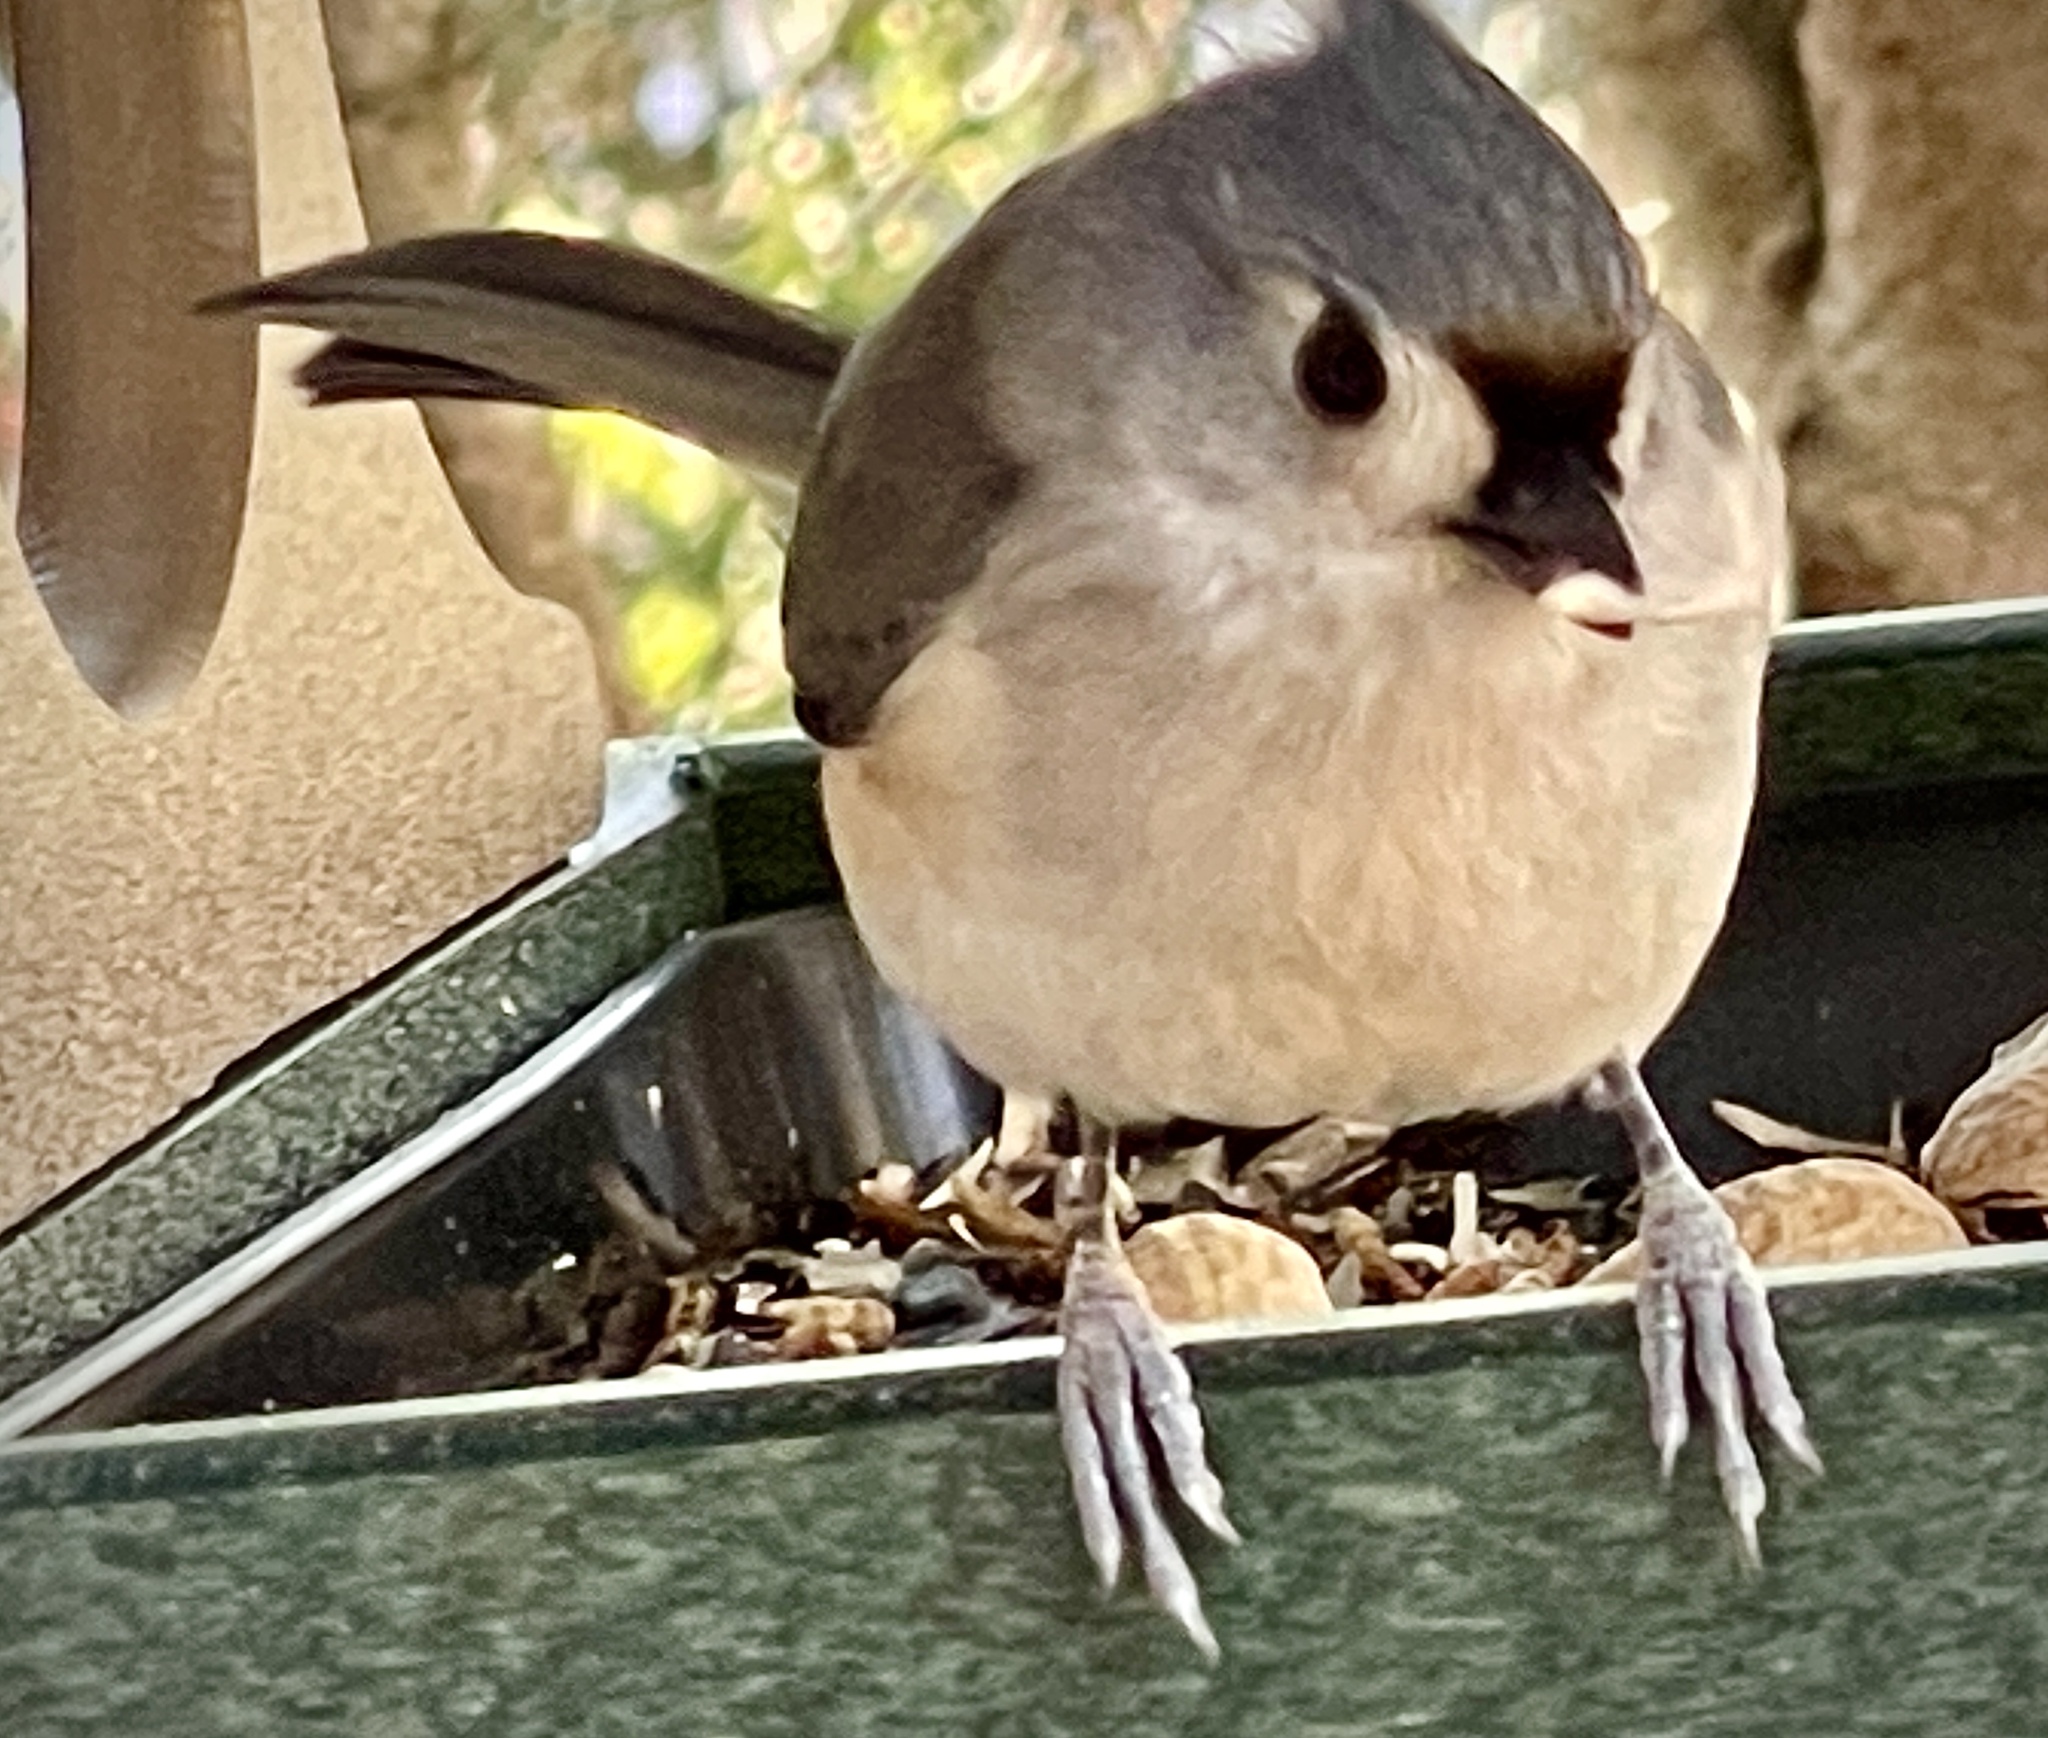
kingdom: Animalia
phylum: Chordata
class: Aves
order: Passeriformes
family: Paridae
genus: Baeolophus
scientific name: Baeolophus bicolor
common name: Tufted titmouse
